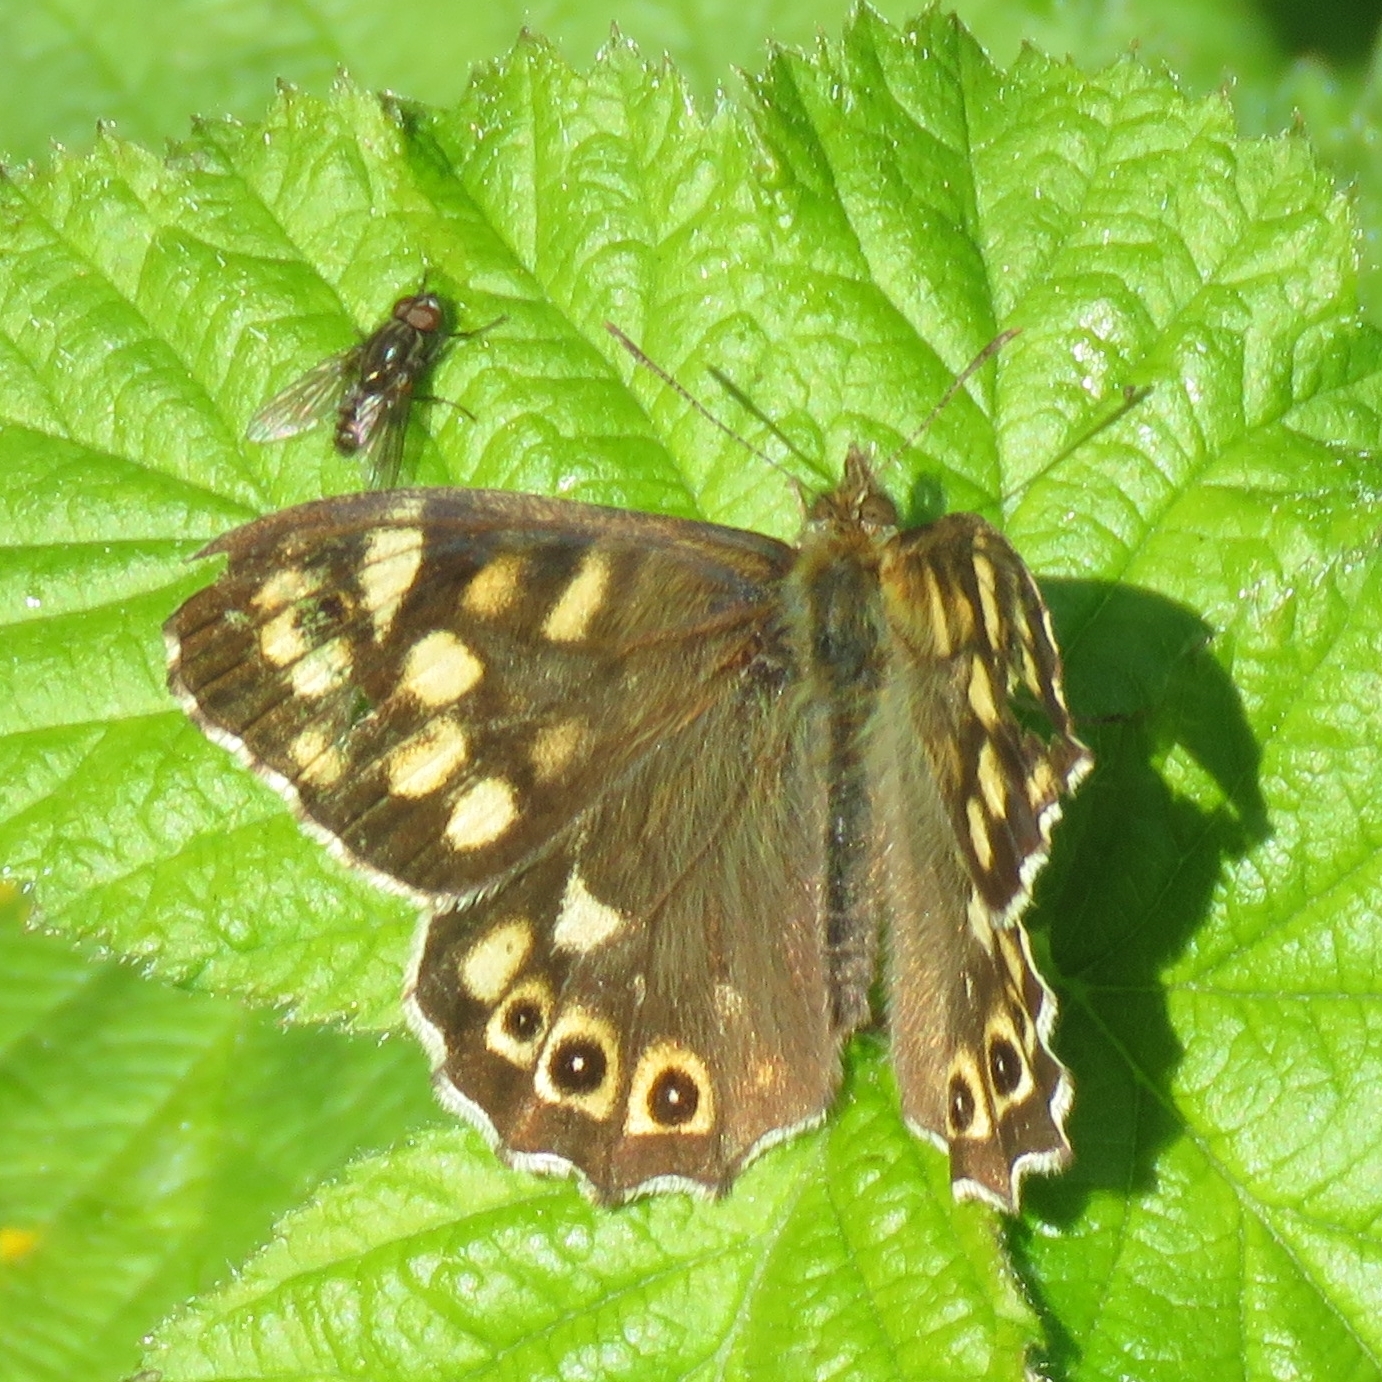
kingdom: Animalia
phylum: Arthropoda
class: Insecta
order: Lepidoptera
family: Nymphalidae
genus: Pararge
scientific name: Pararge aegeria
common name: Speckled wood
